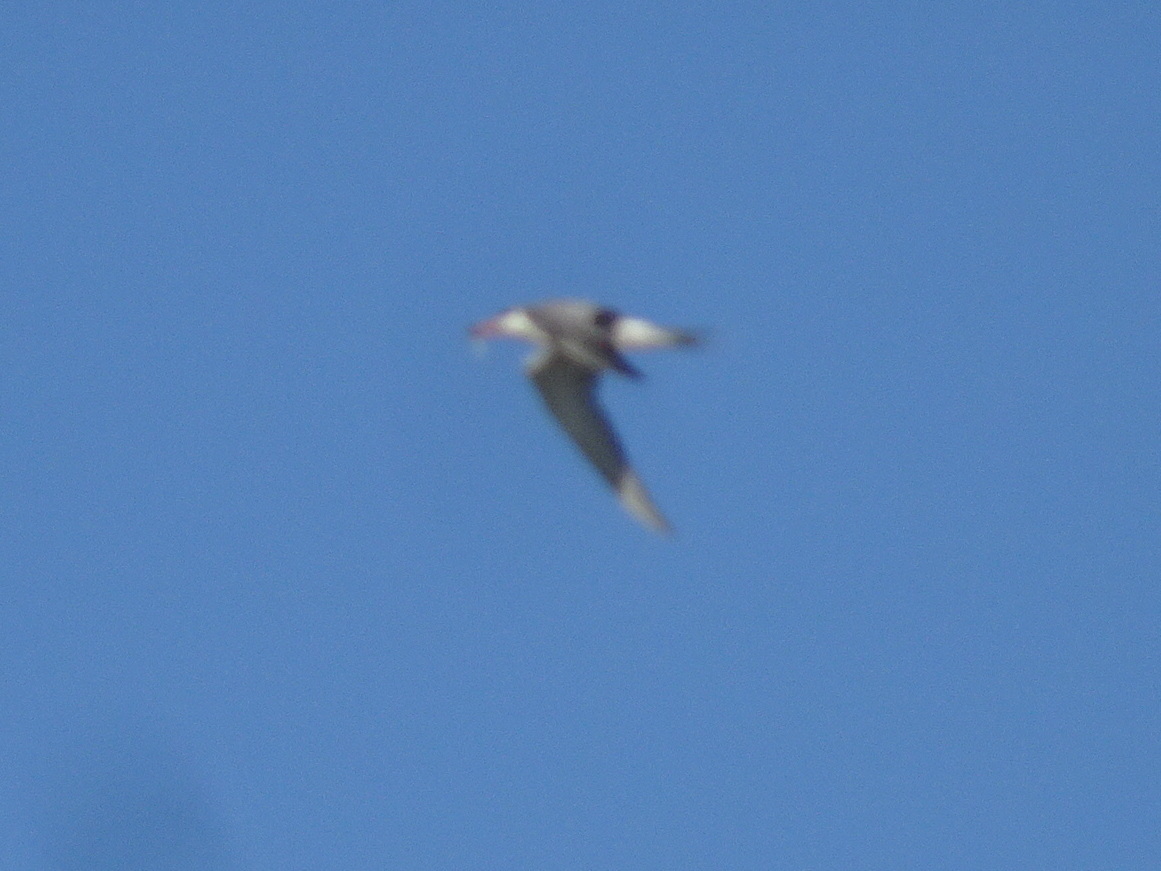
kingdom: Animalia
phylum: Chordata
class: Aves
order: Charadriiformes
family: Laridae
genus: Sterna
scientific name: Sterna hirundo
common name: Common tern
